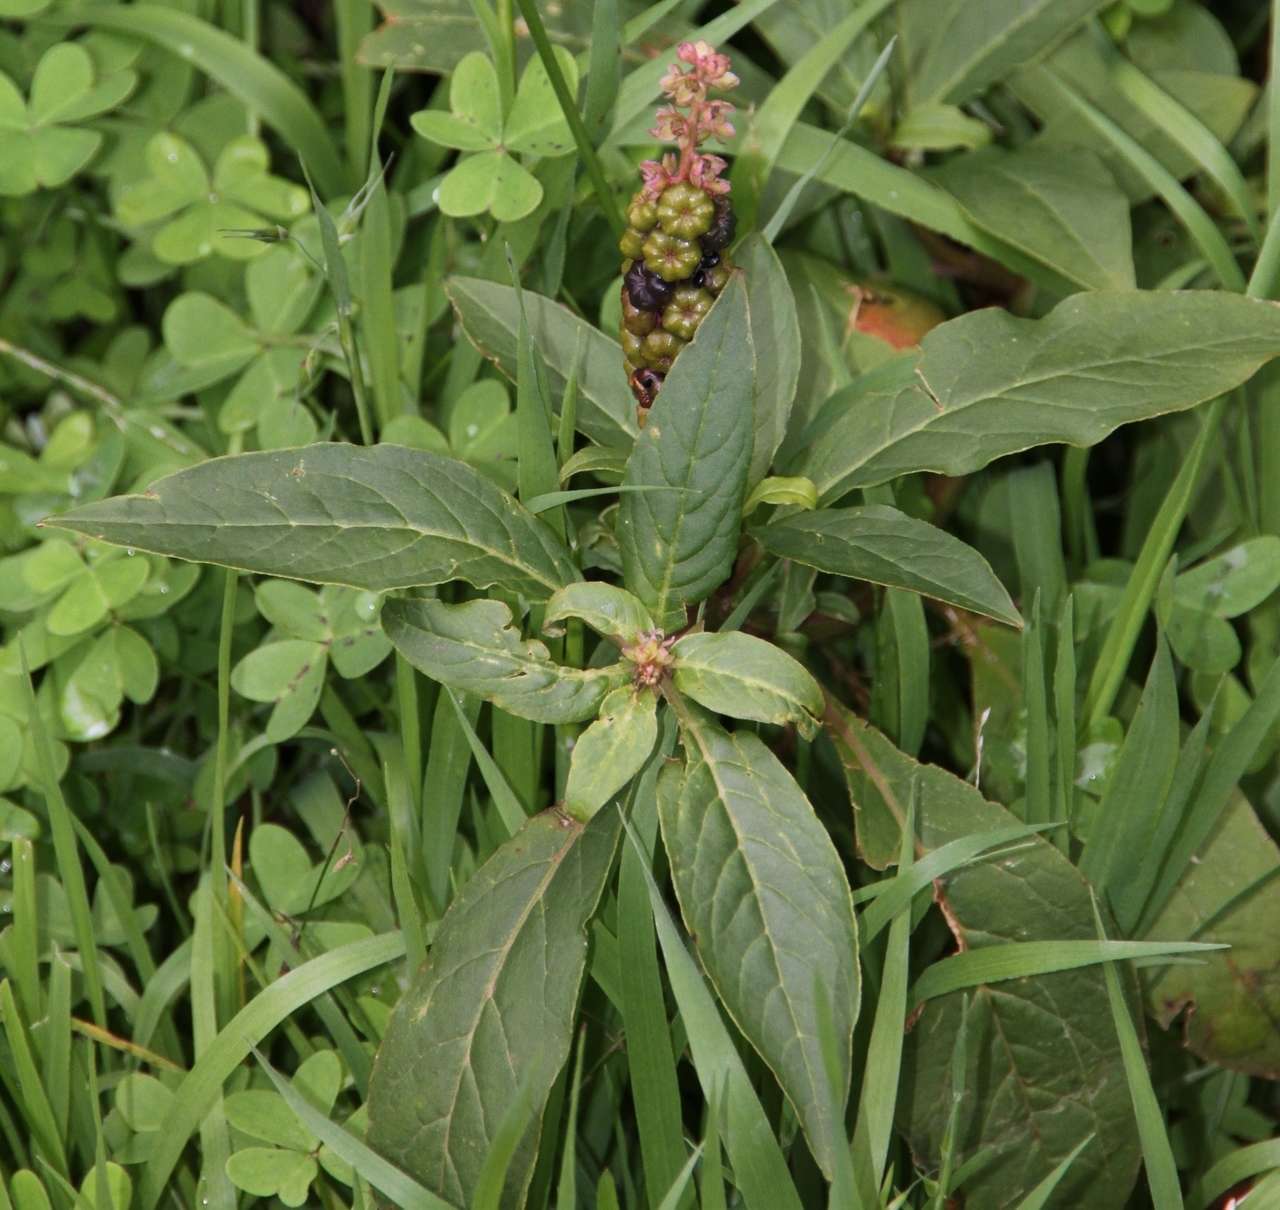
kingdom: Plantae
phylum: Tracheophyta
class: Magnoliopsida
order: Caryophyllales
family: Phytolaccaceae
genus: Phytolacca
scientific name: Phytolacca icosandra
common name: Button pokeweed
